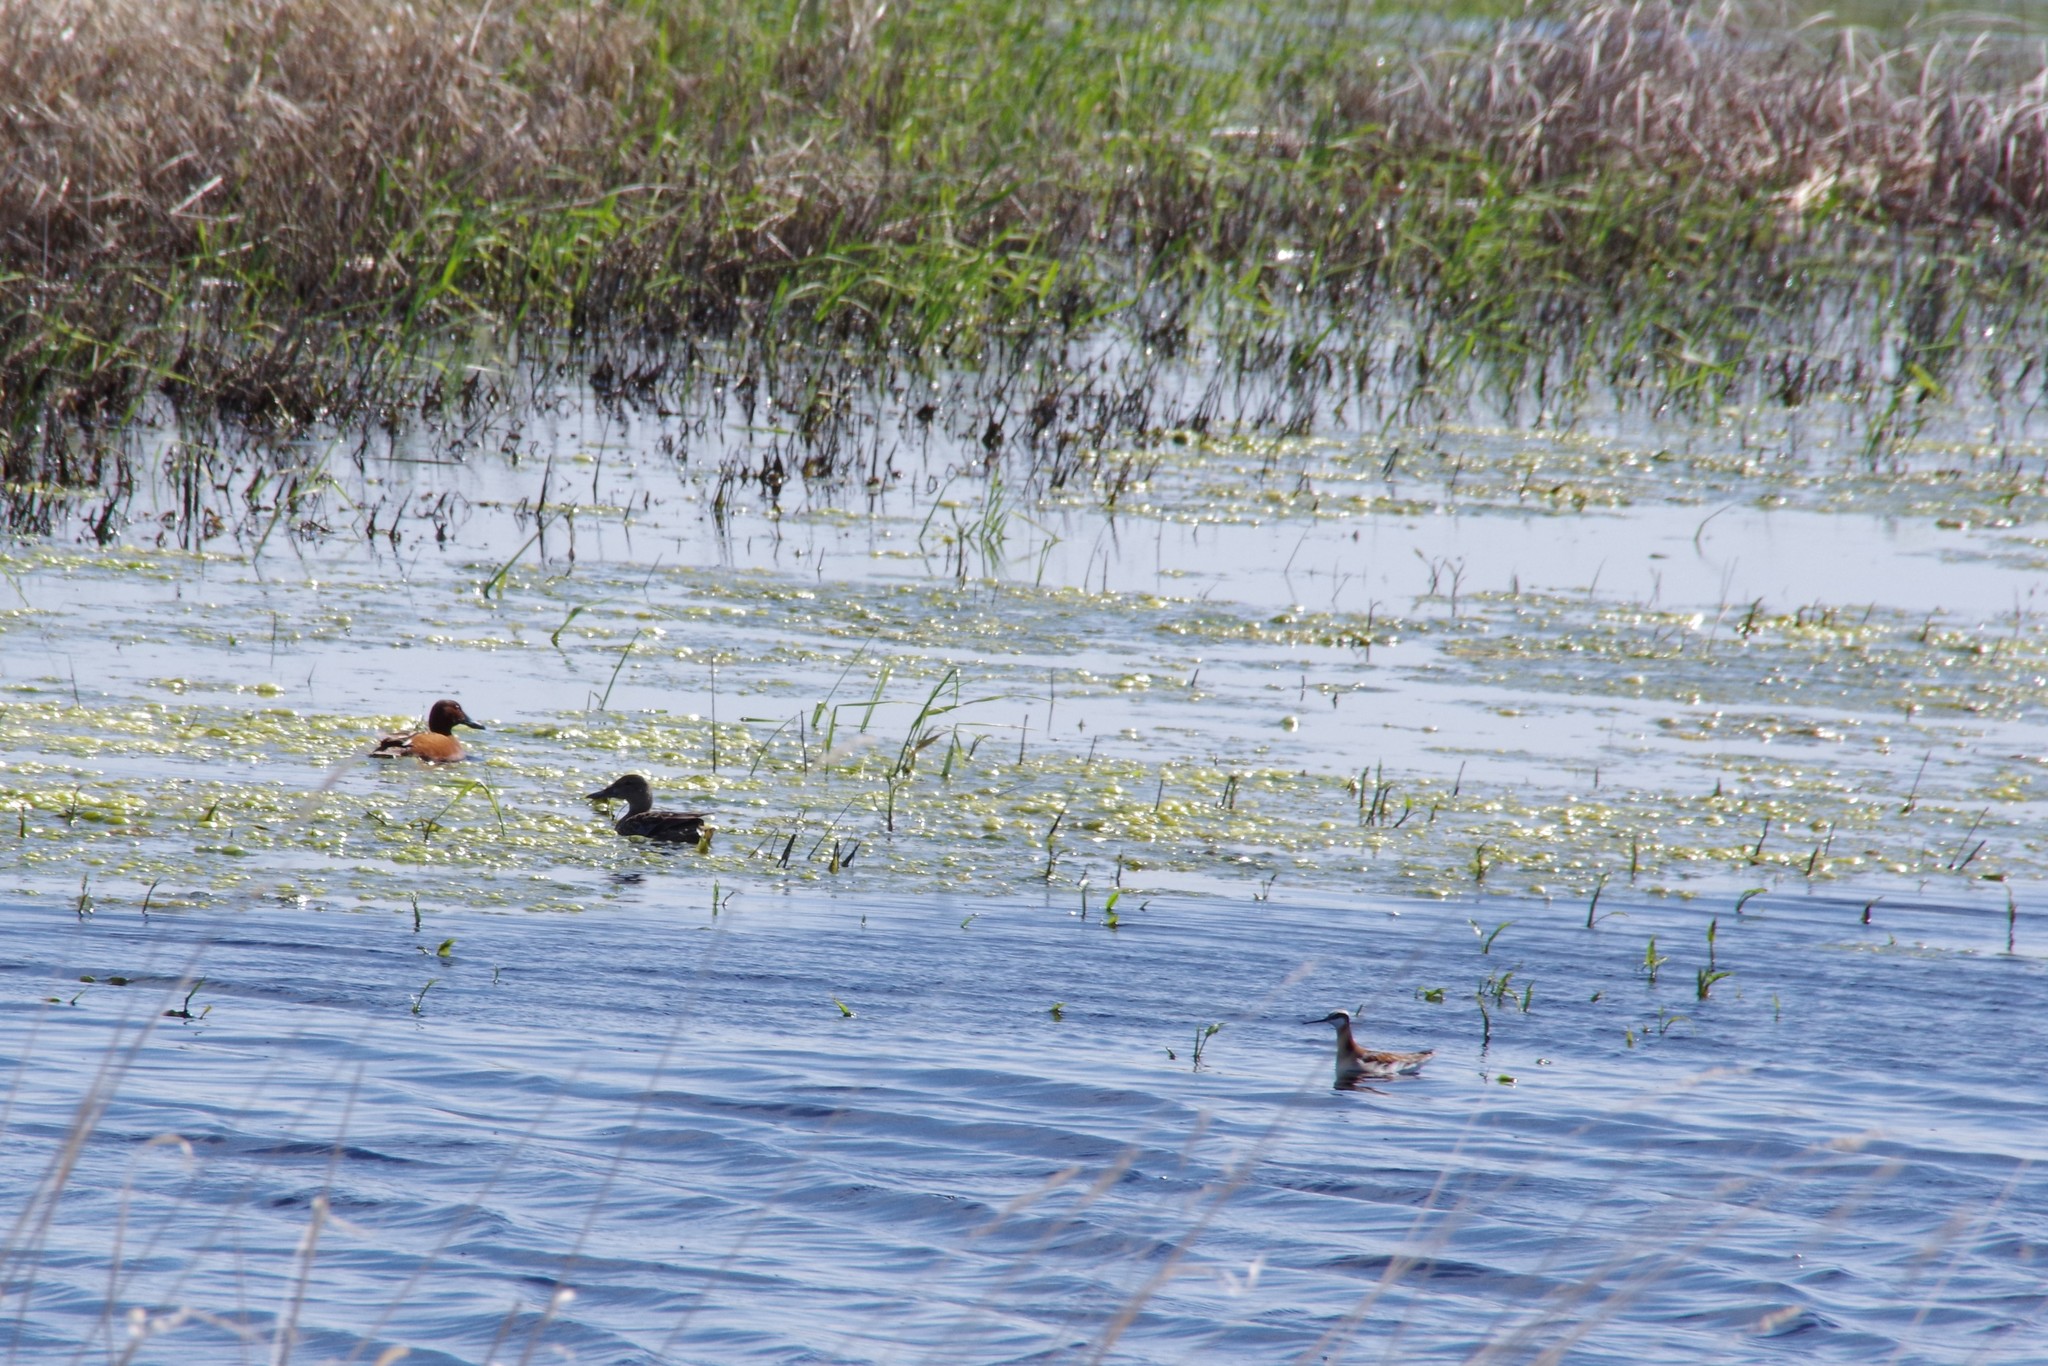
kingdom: Animalia
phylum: Chordata
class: Aves
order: Anseriformes
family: Anatidae
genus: Spatula
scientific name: Spatula cyanoptera
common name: Cinnamon teal
